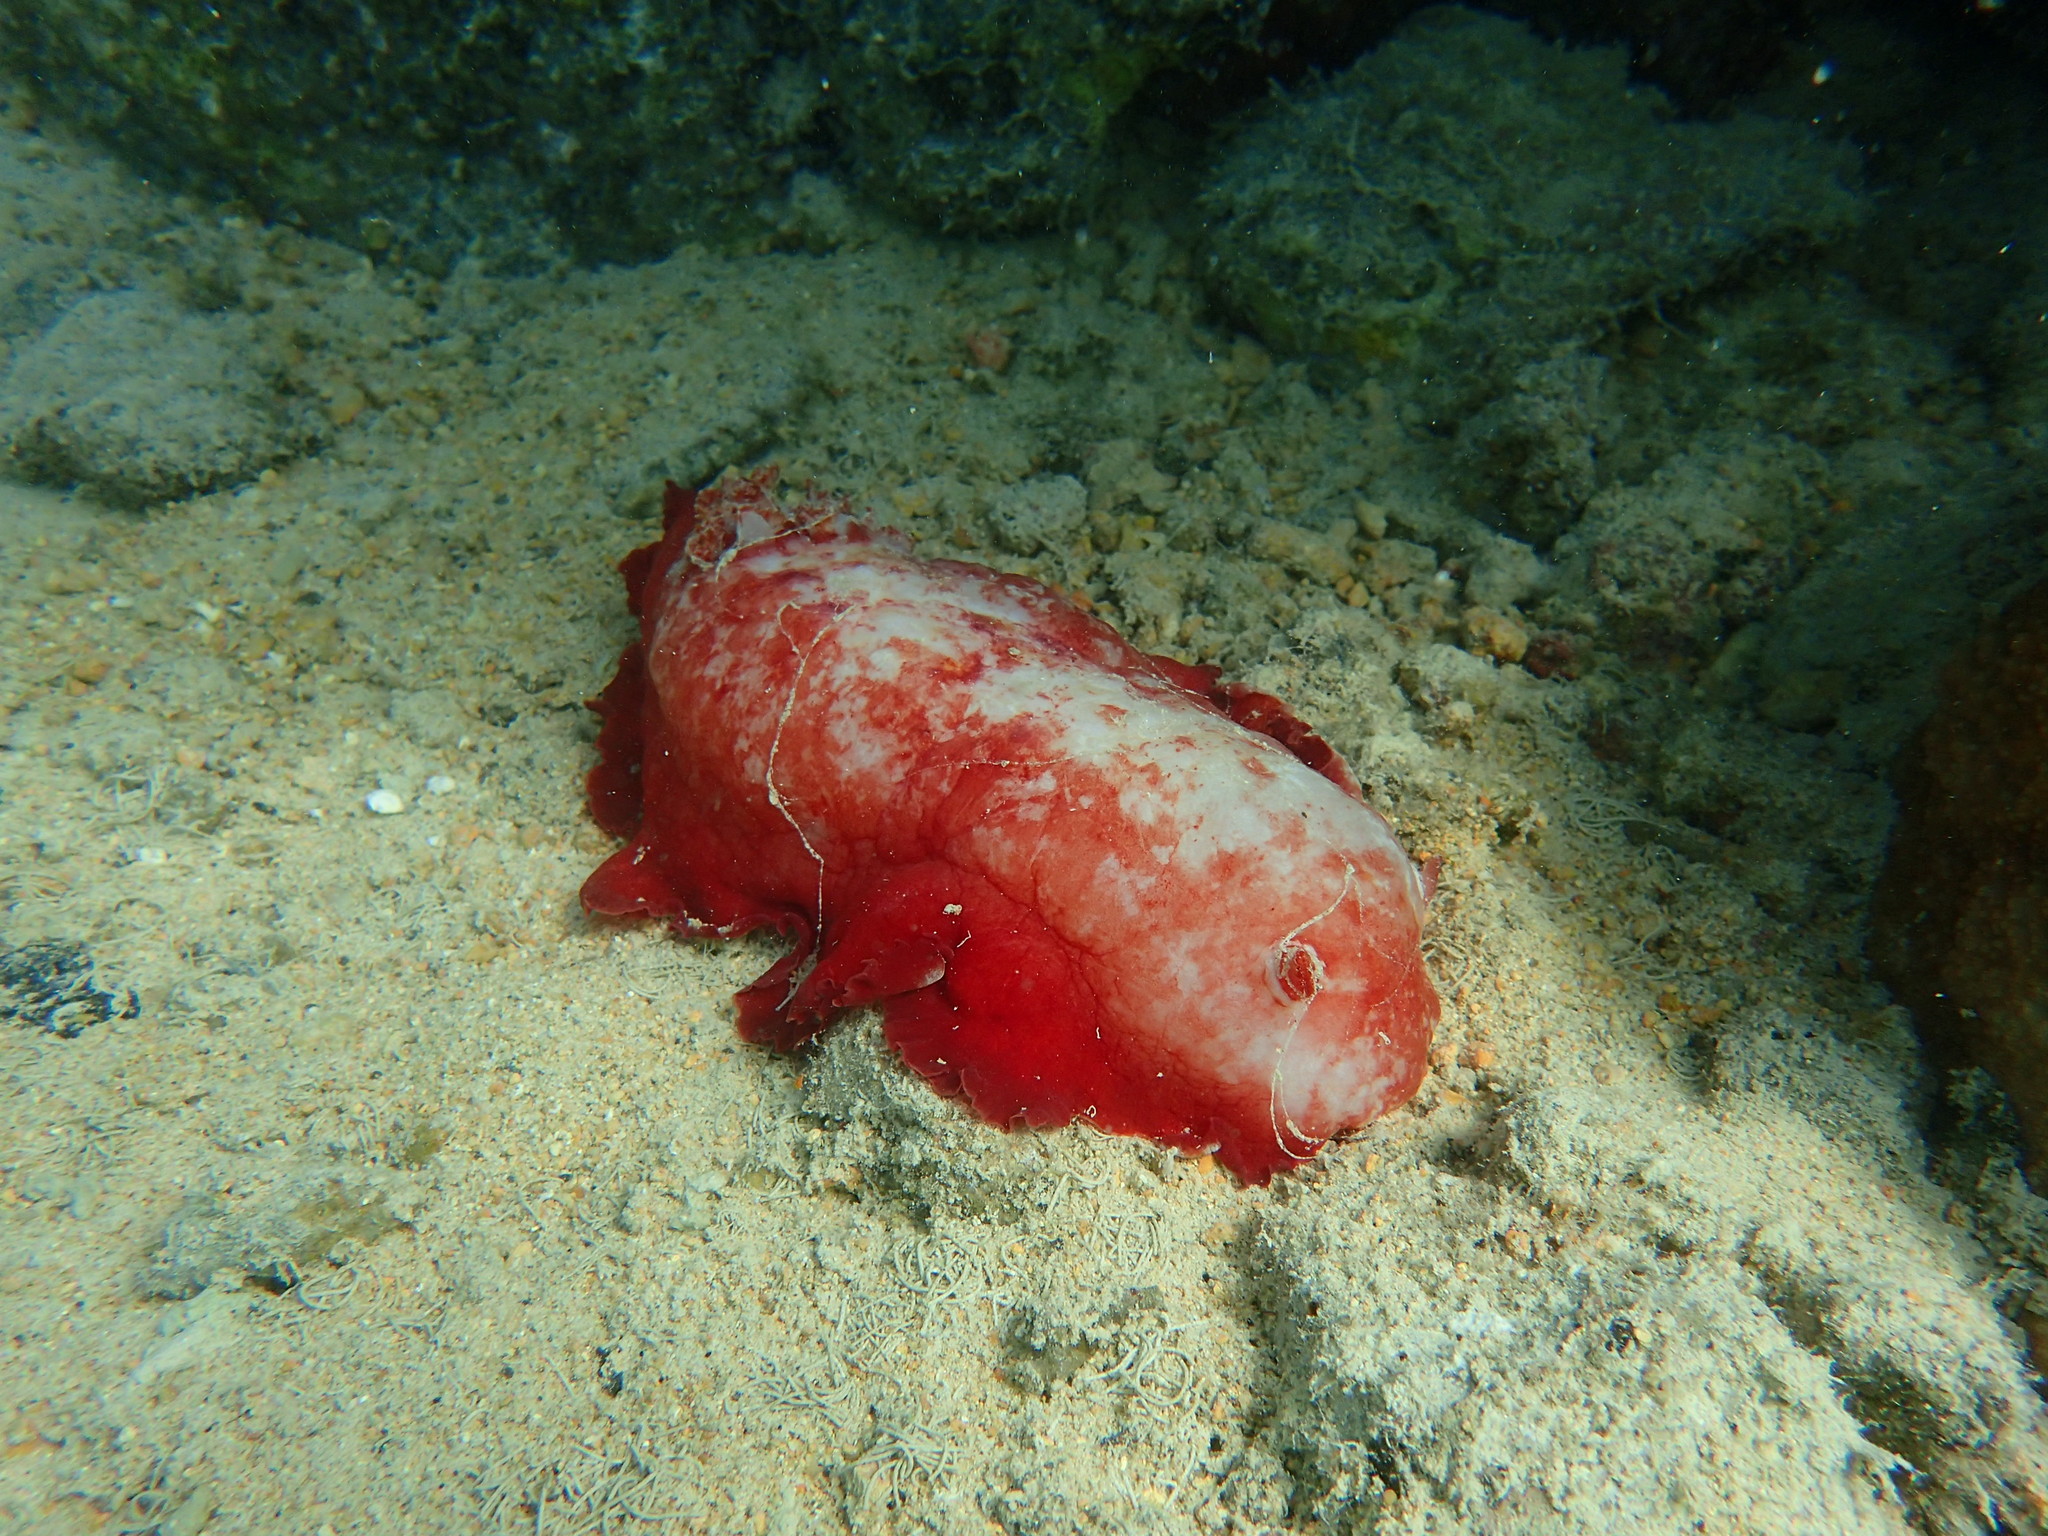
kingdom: Animalia
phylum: Mollusca
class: Gastropoda
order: Nudibranchia
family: Hexabranchidae
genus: Hexabranchus
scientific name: Hexabranchus sandwichensis
